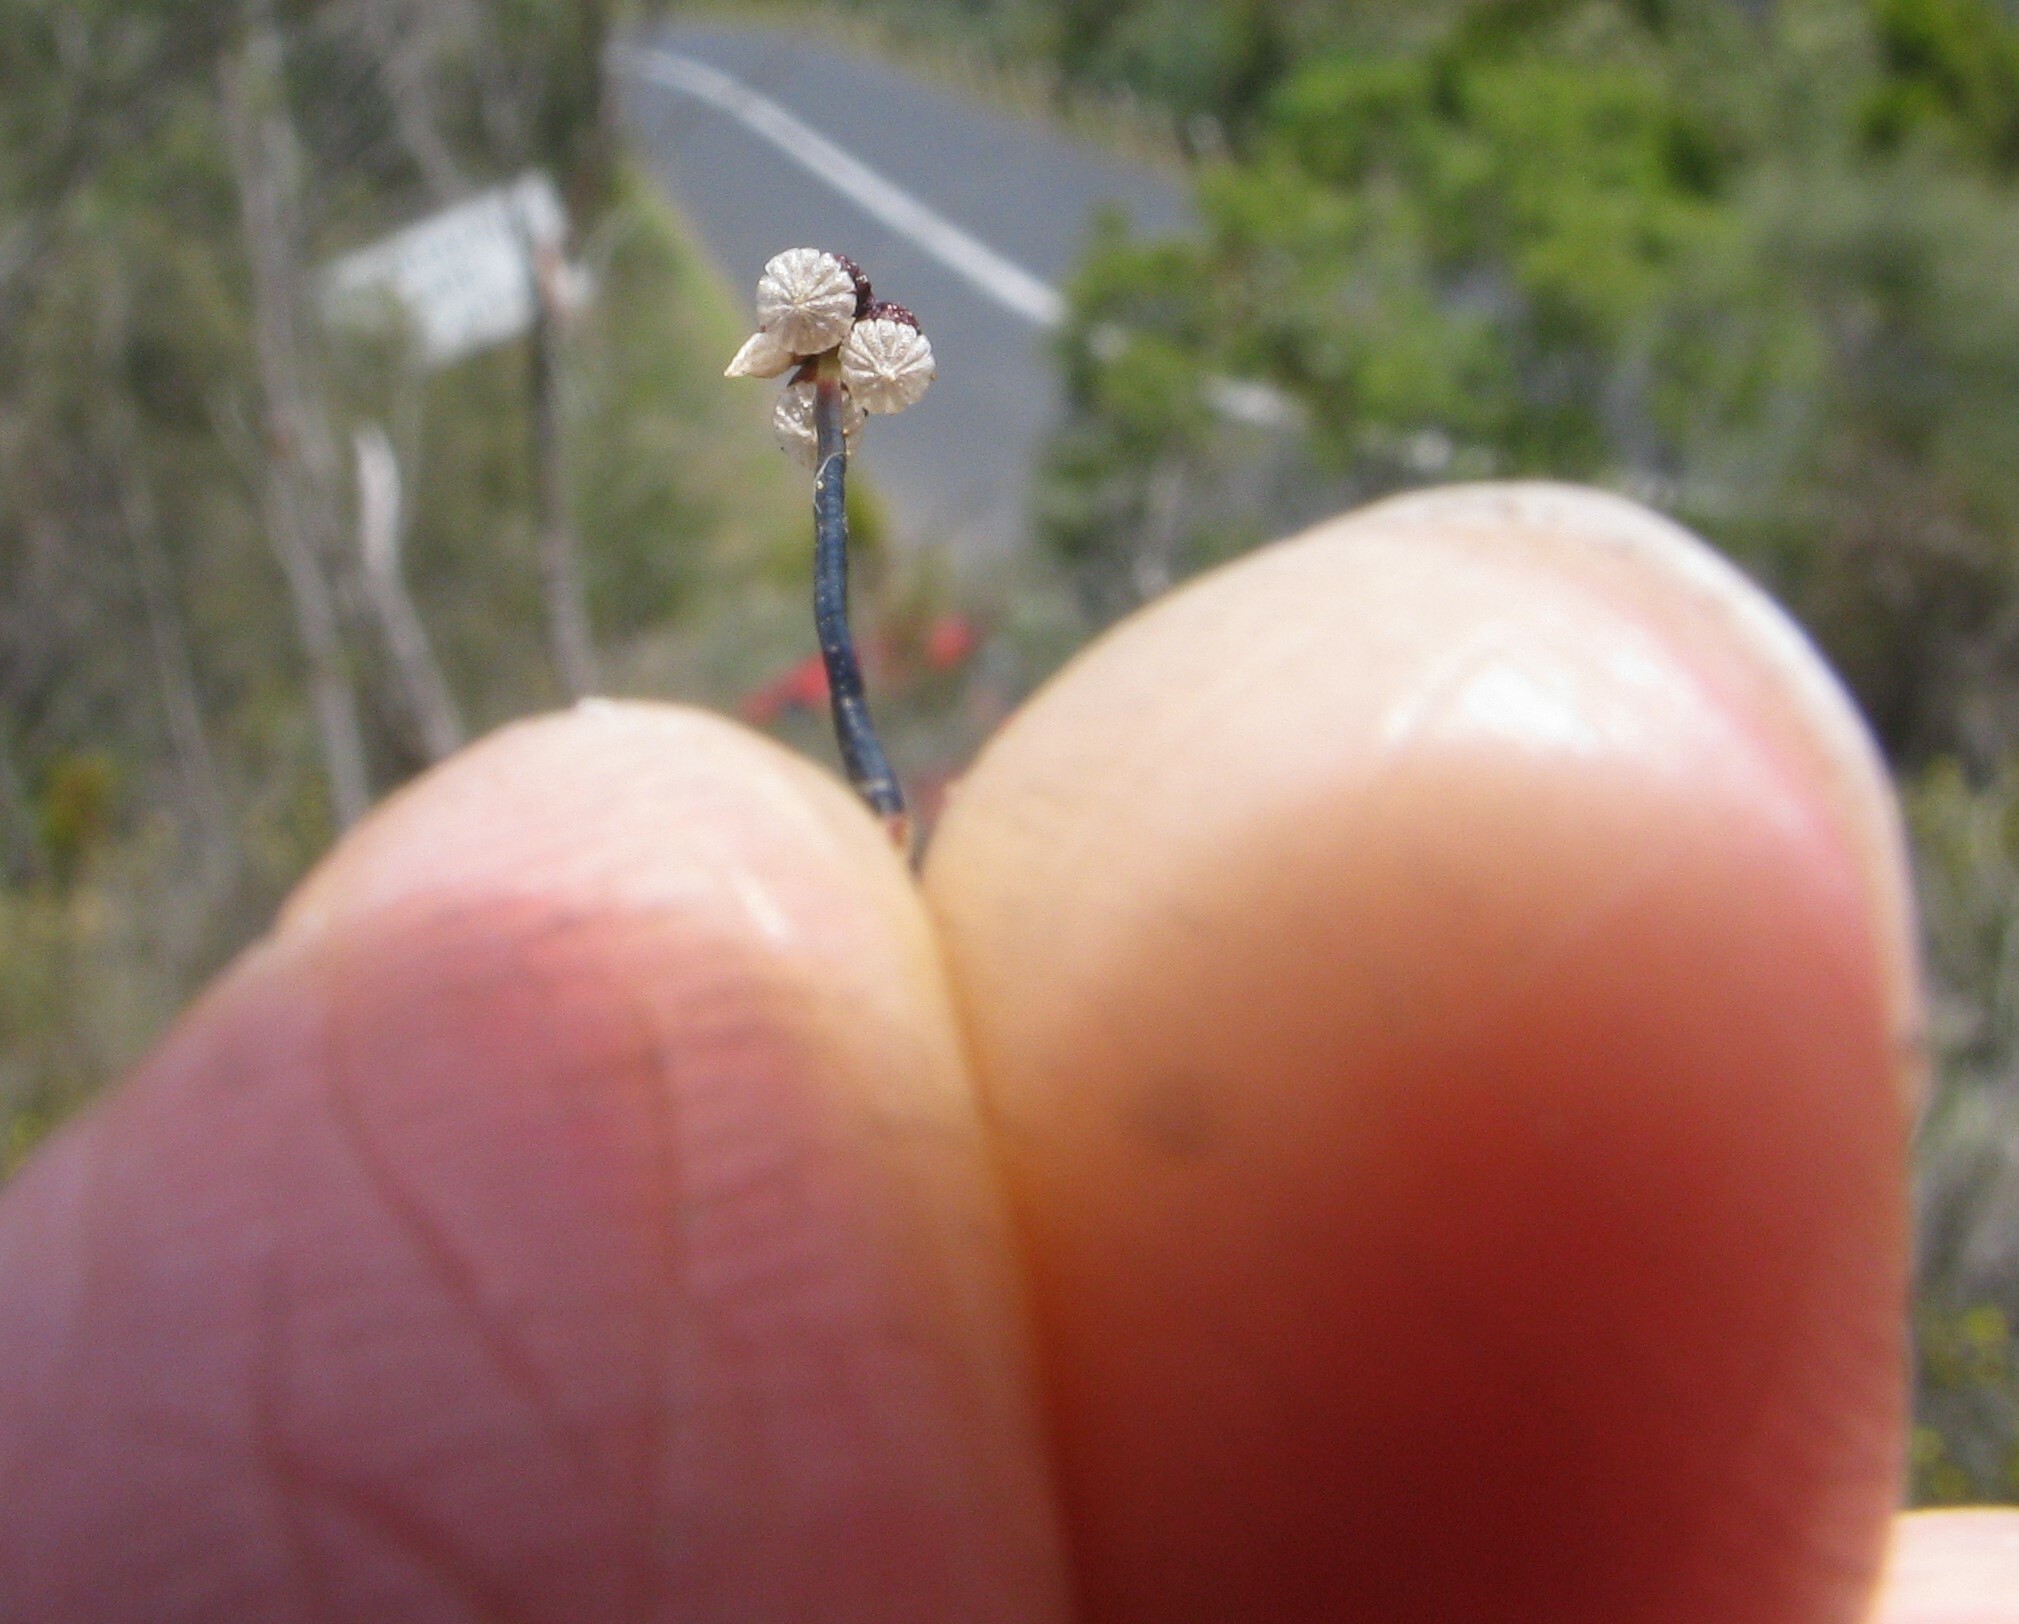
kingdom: Plantae
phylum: Marchantiophyta
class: Marchantiopsida
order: Marchantiales
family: Aytoniaceae
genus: Asterella
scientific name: Asterella drummondii
